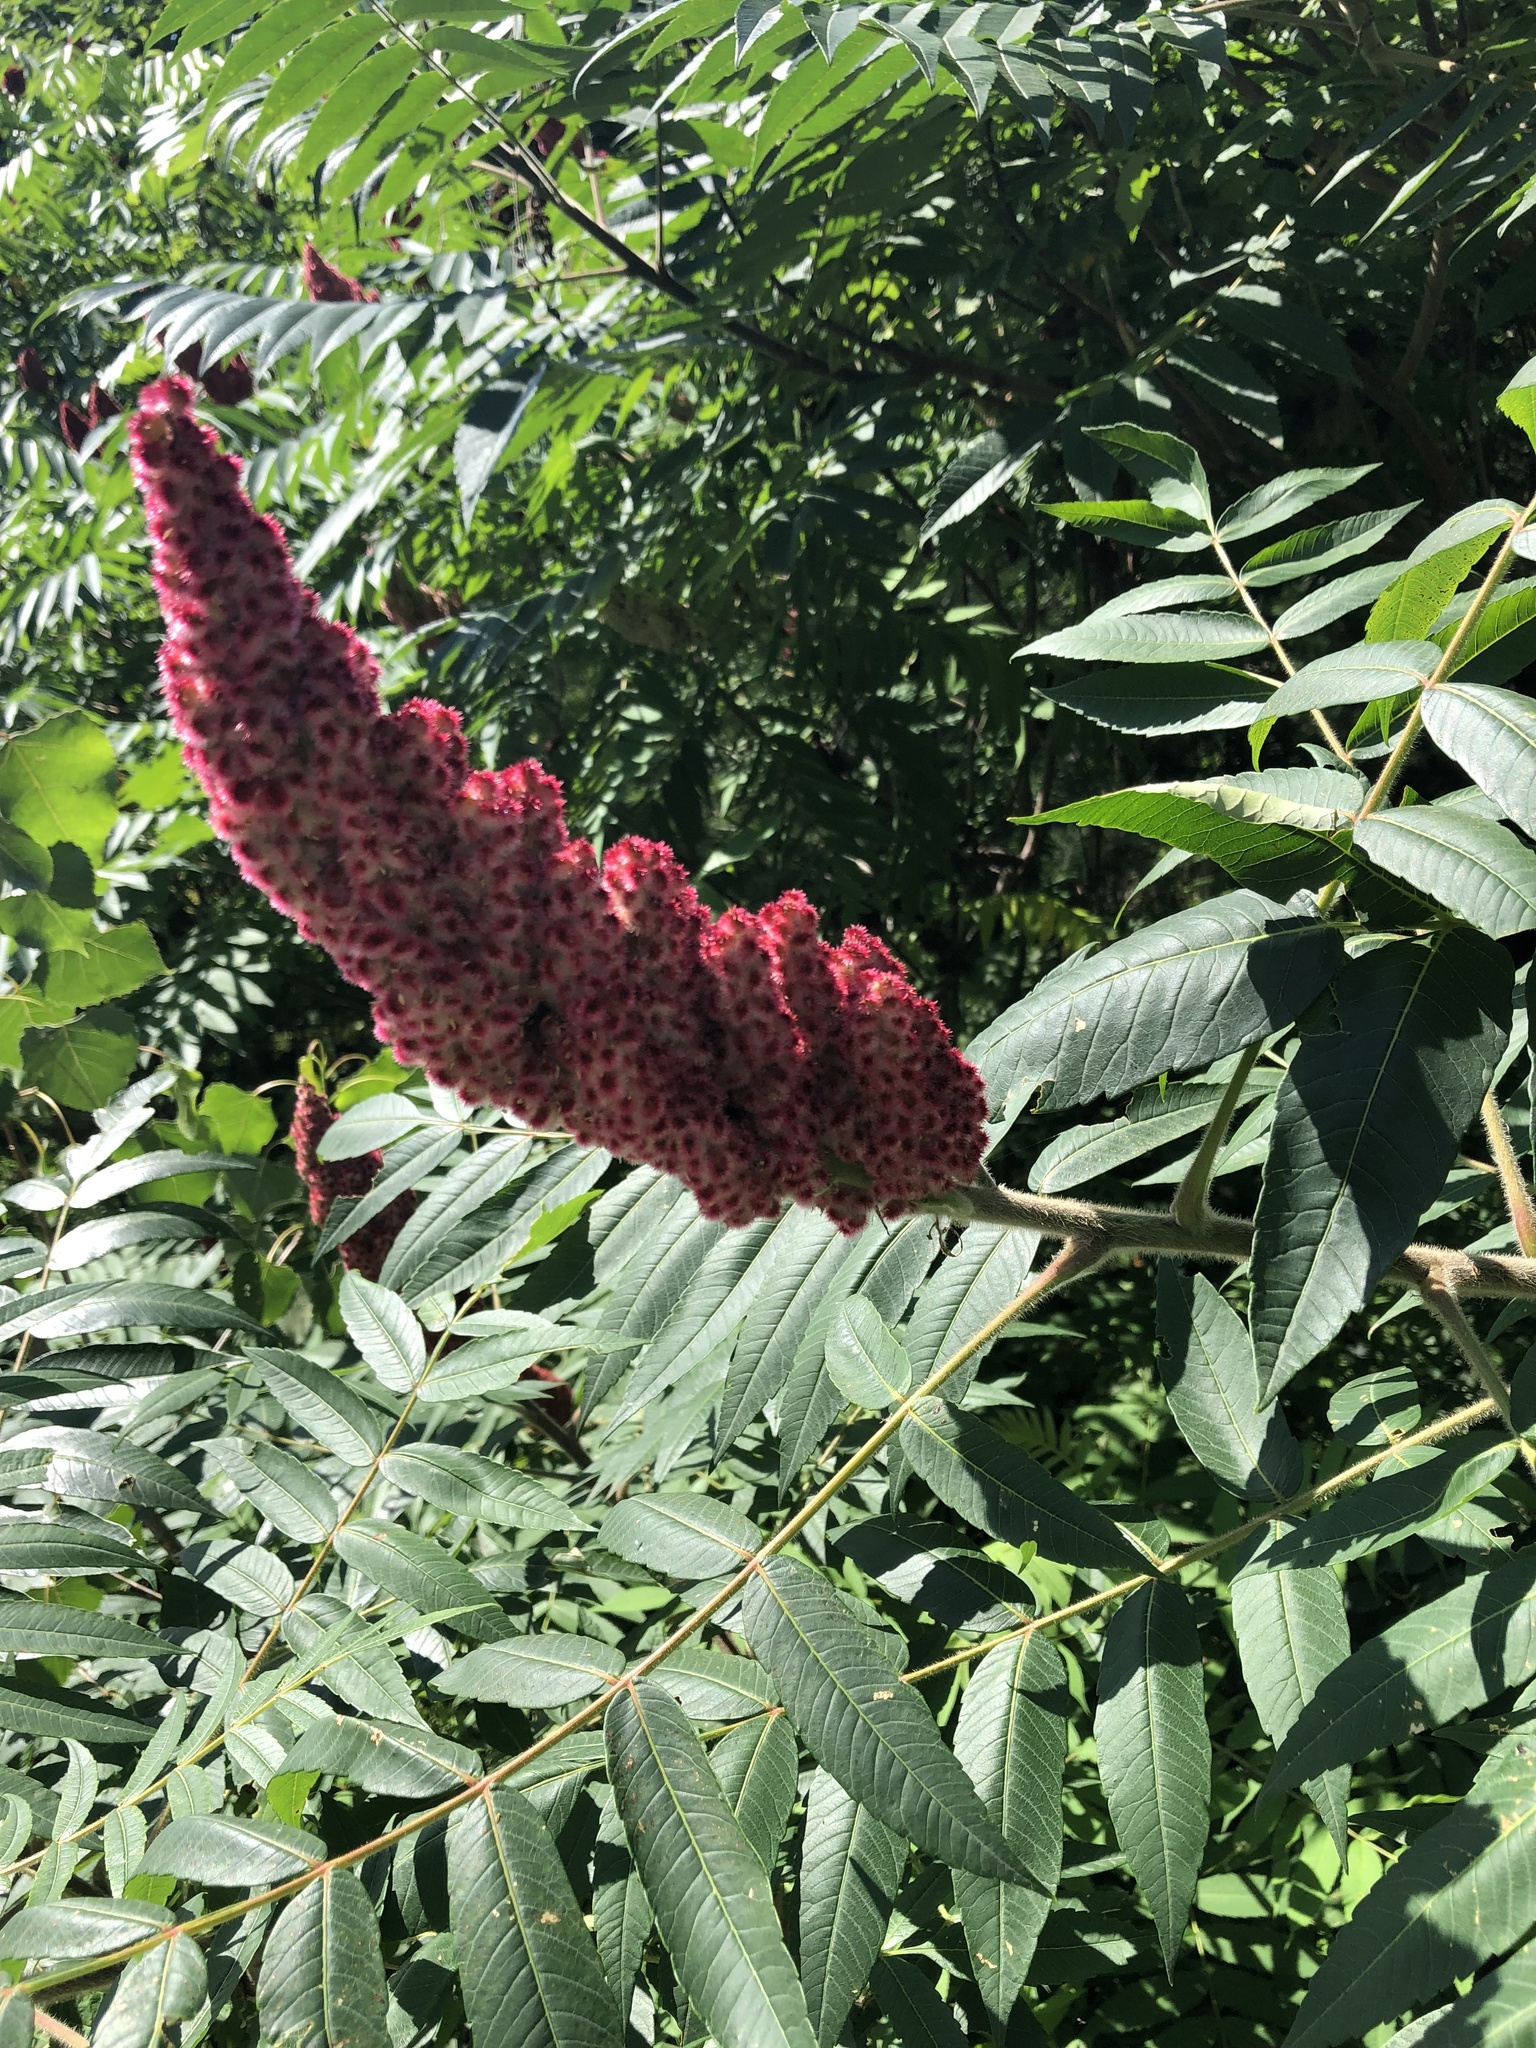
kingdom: Plantae
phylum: Tracheophyta
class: Magnoliopsida
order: Sapindales
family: Anacardiaceae
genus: Rhus
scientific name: Rhus typhina
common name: Staghorn sumac
